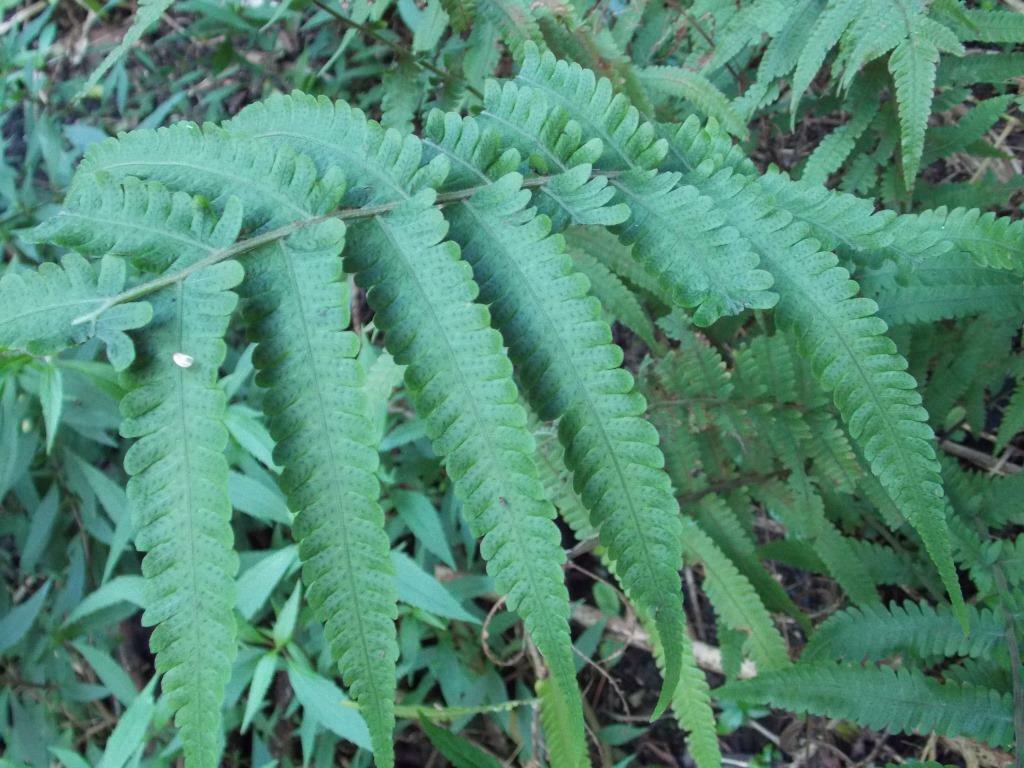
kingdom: Plantae
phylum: Tracheophyta
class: Polypodiopsida
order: Polypodiales
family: Thelypteridaceae
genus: Christella
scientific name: Christella dentata
